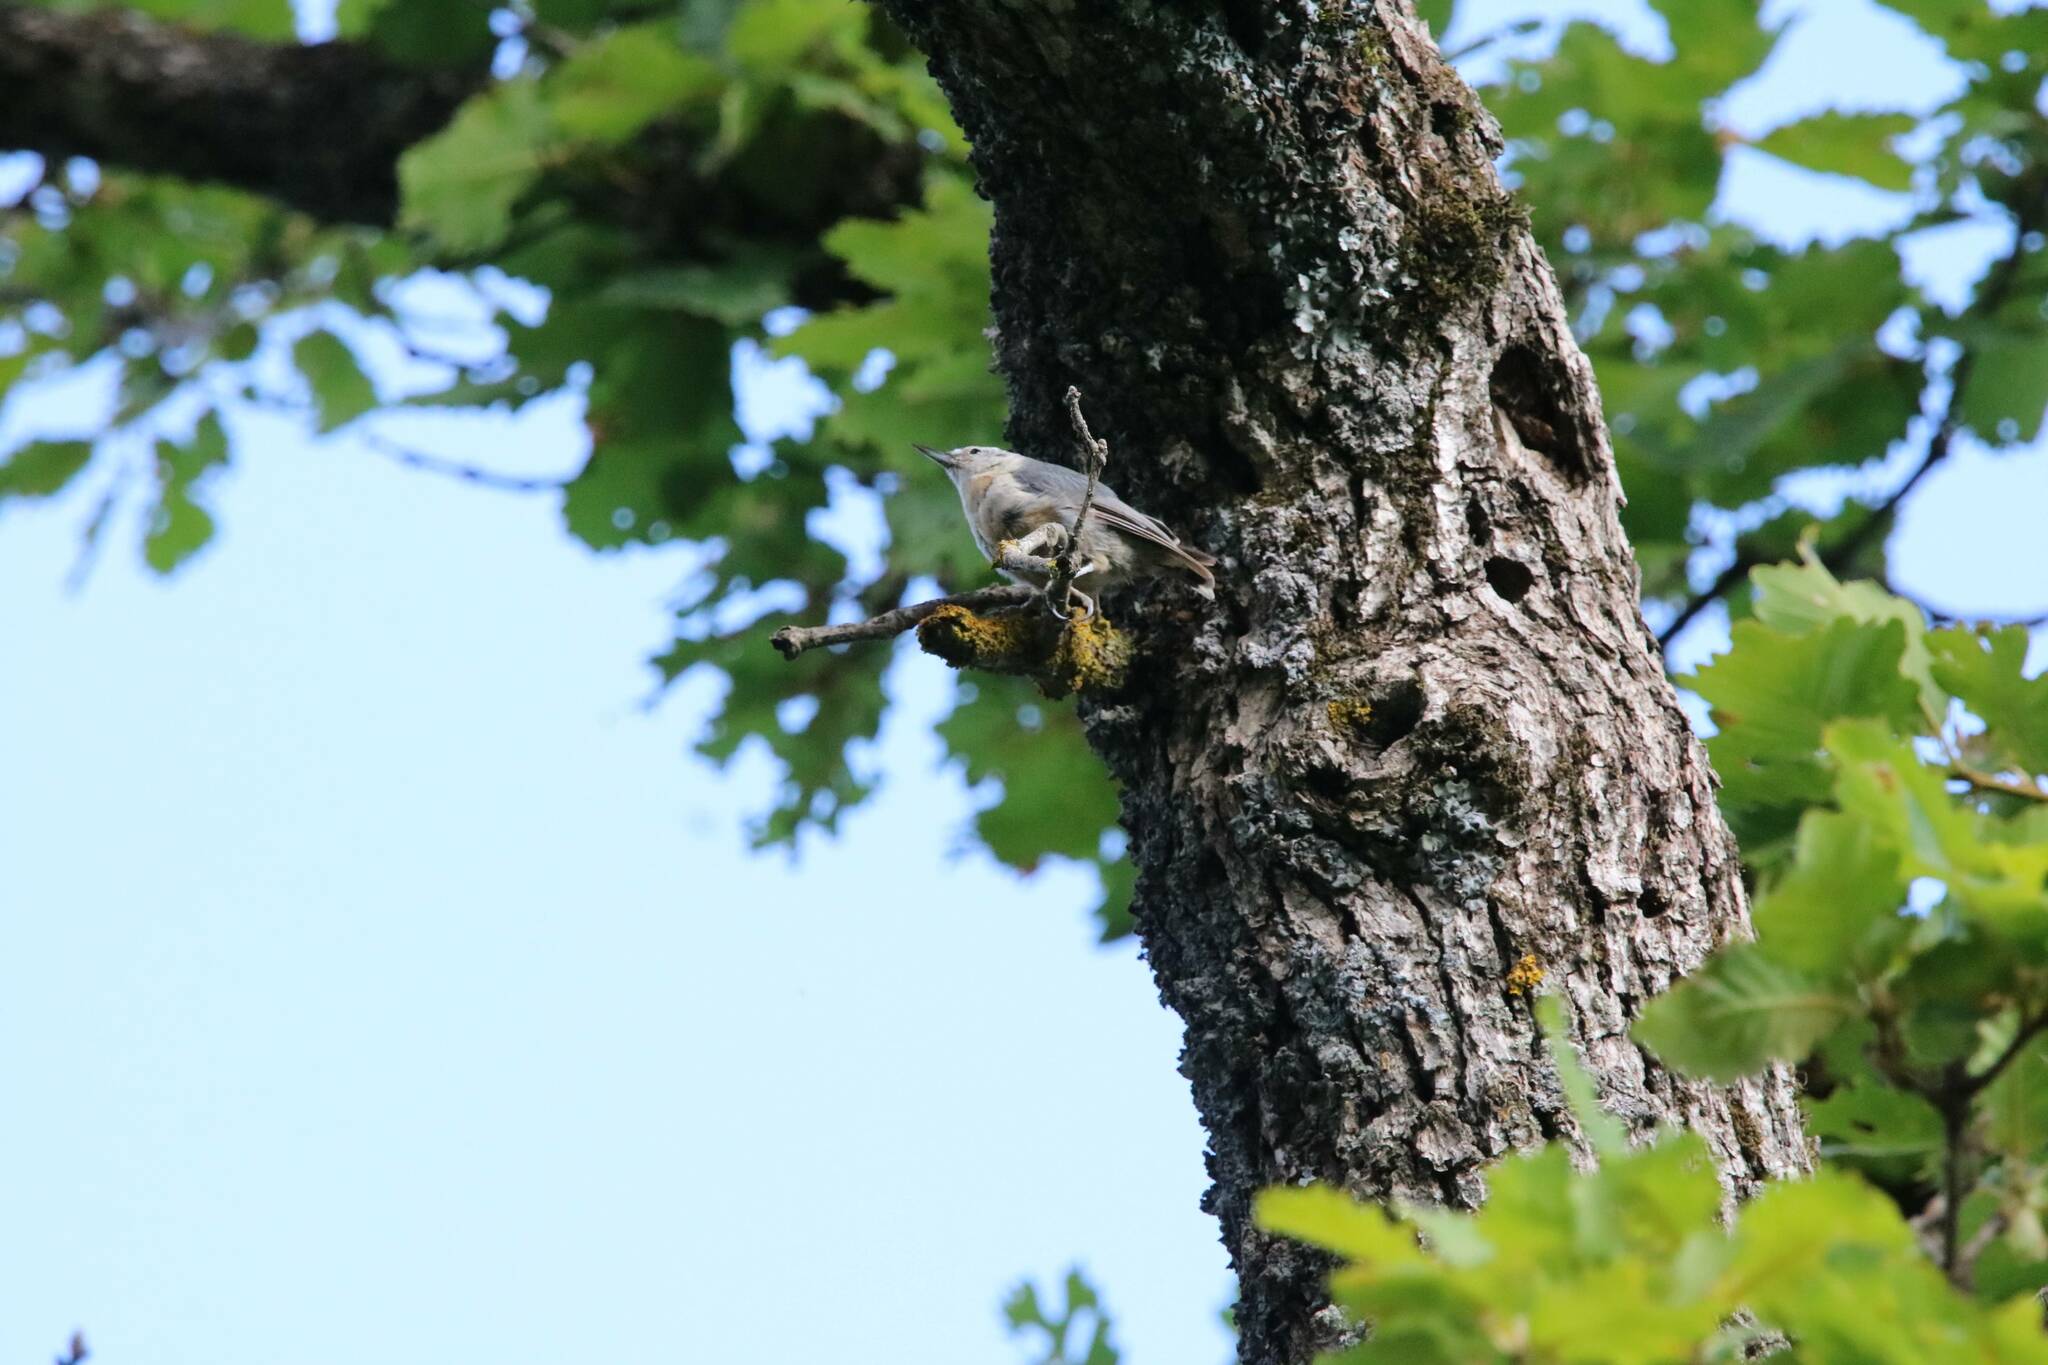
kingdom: Animalia
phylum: Chordata
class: Aves
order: Passeriformes
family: Sittidae
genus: Sitta
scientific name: Sitta ledanti
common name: Algerian nuthatch
